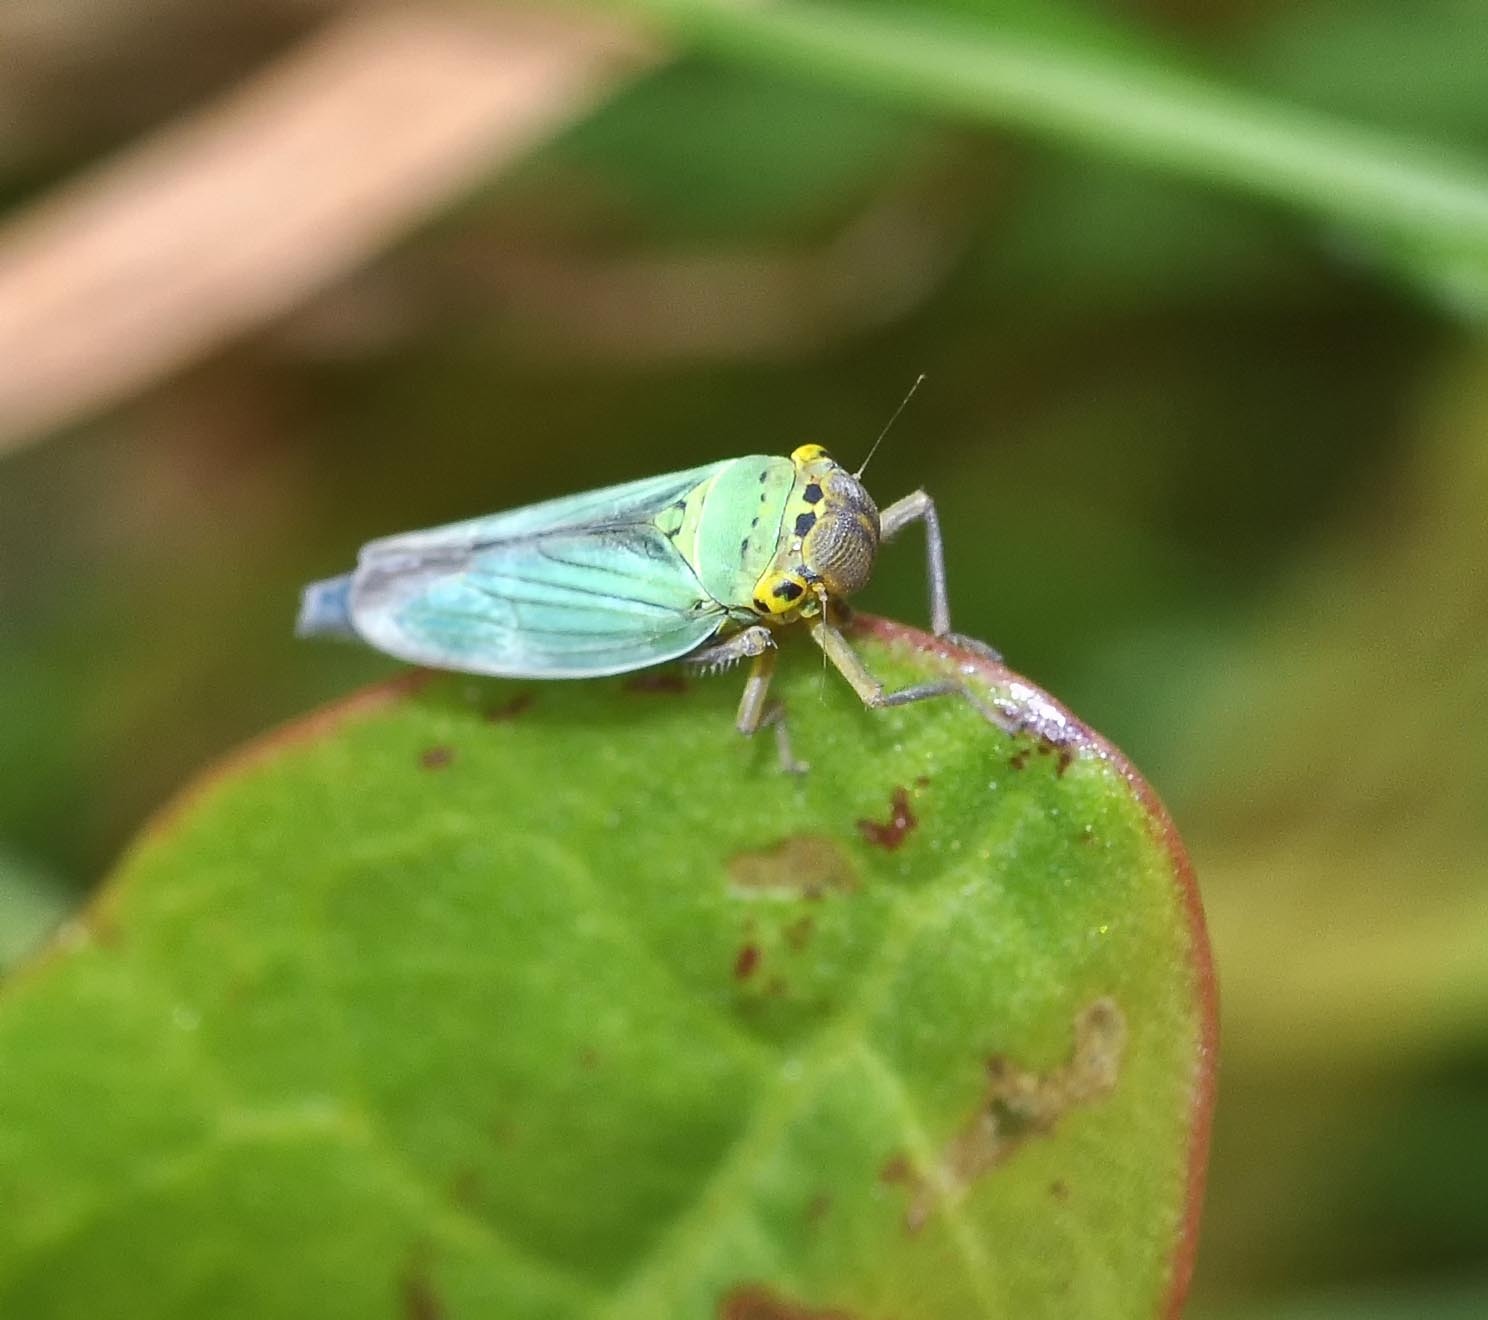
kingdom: Animalia
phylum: Arthropoda
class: Insecta
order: Hemiptera
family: Cicadellidae
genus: Cicadella
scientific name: Cicadella viridis
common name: Leafhopper
